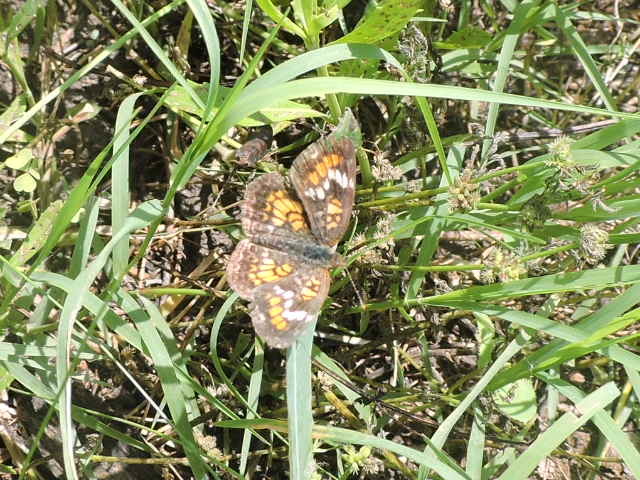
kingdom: Animalia
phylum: Arthropoda
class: Insecta
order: Lepidoptera
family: Nymphalidae
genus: Phyciodes
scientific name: Phyciodes phaon
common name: Phaon crescent
